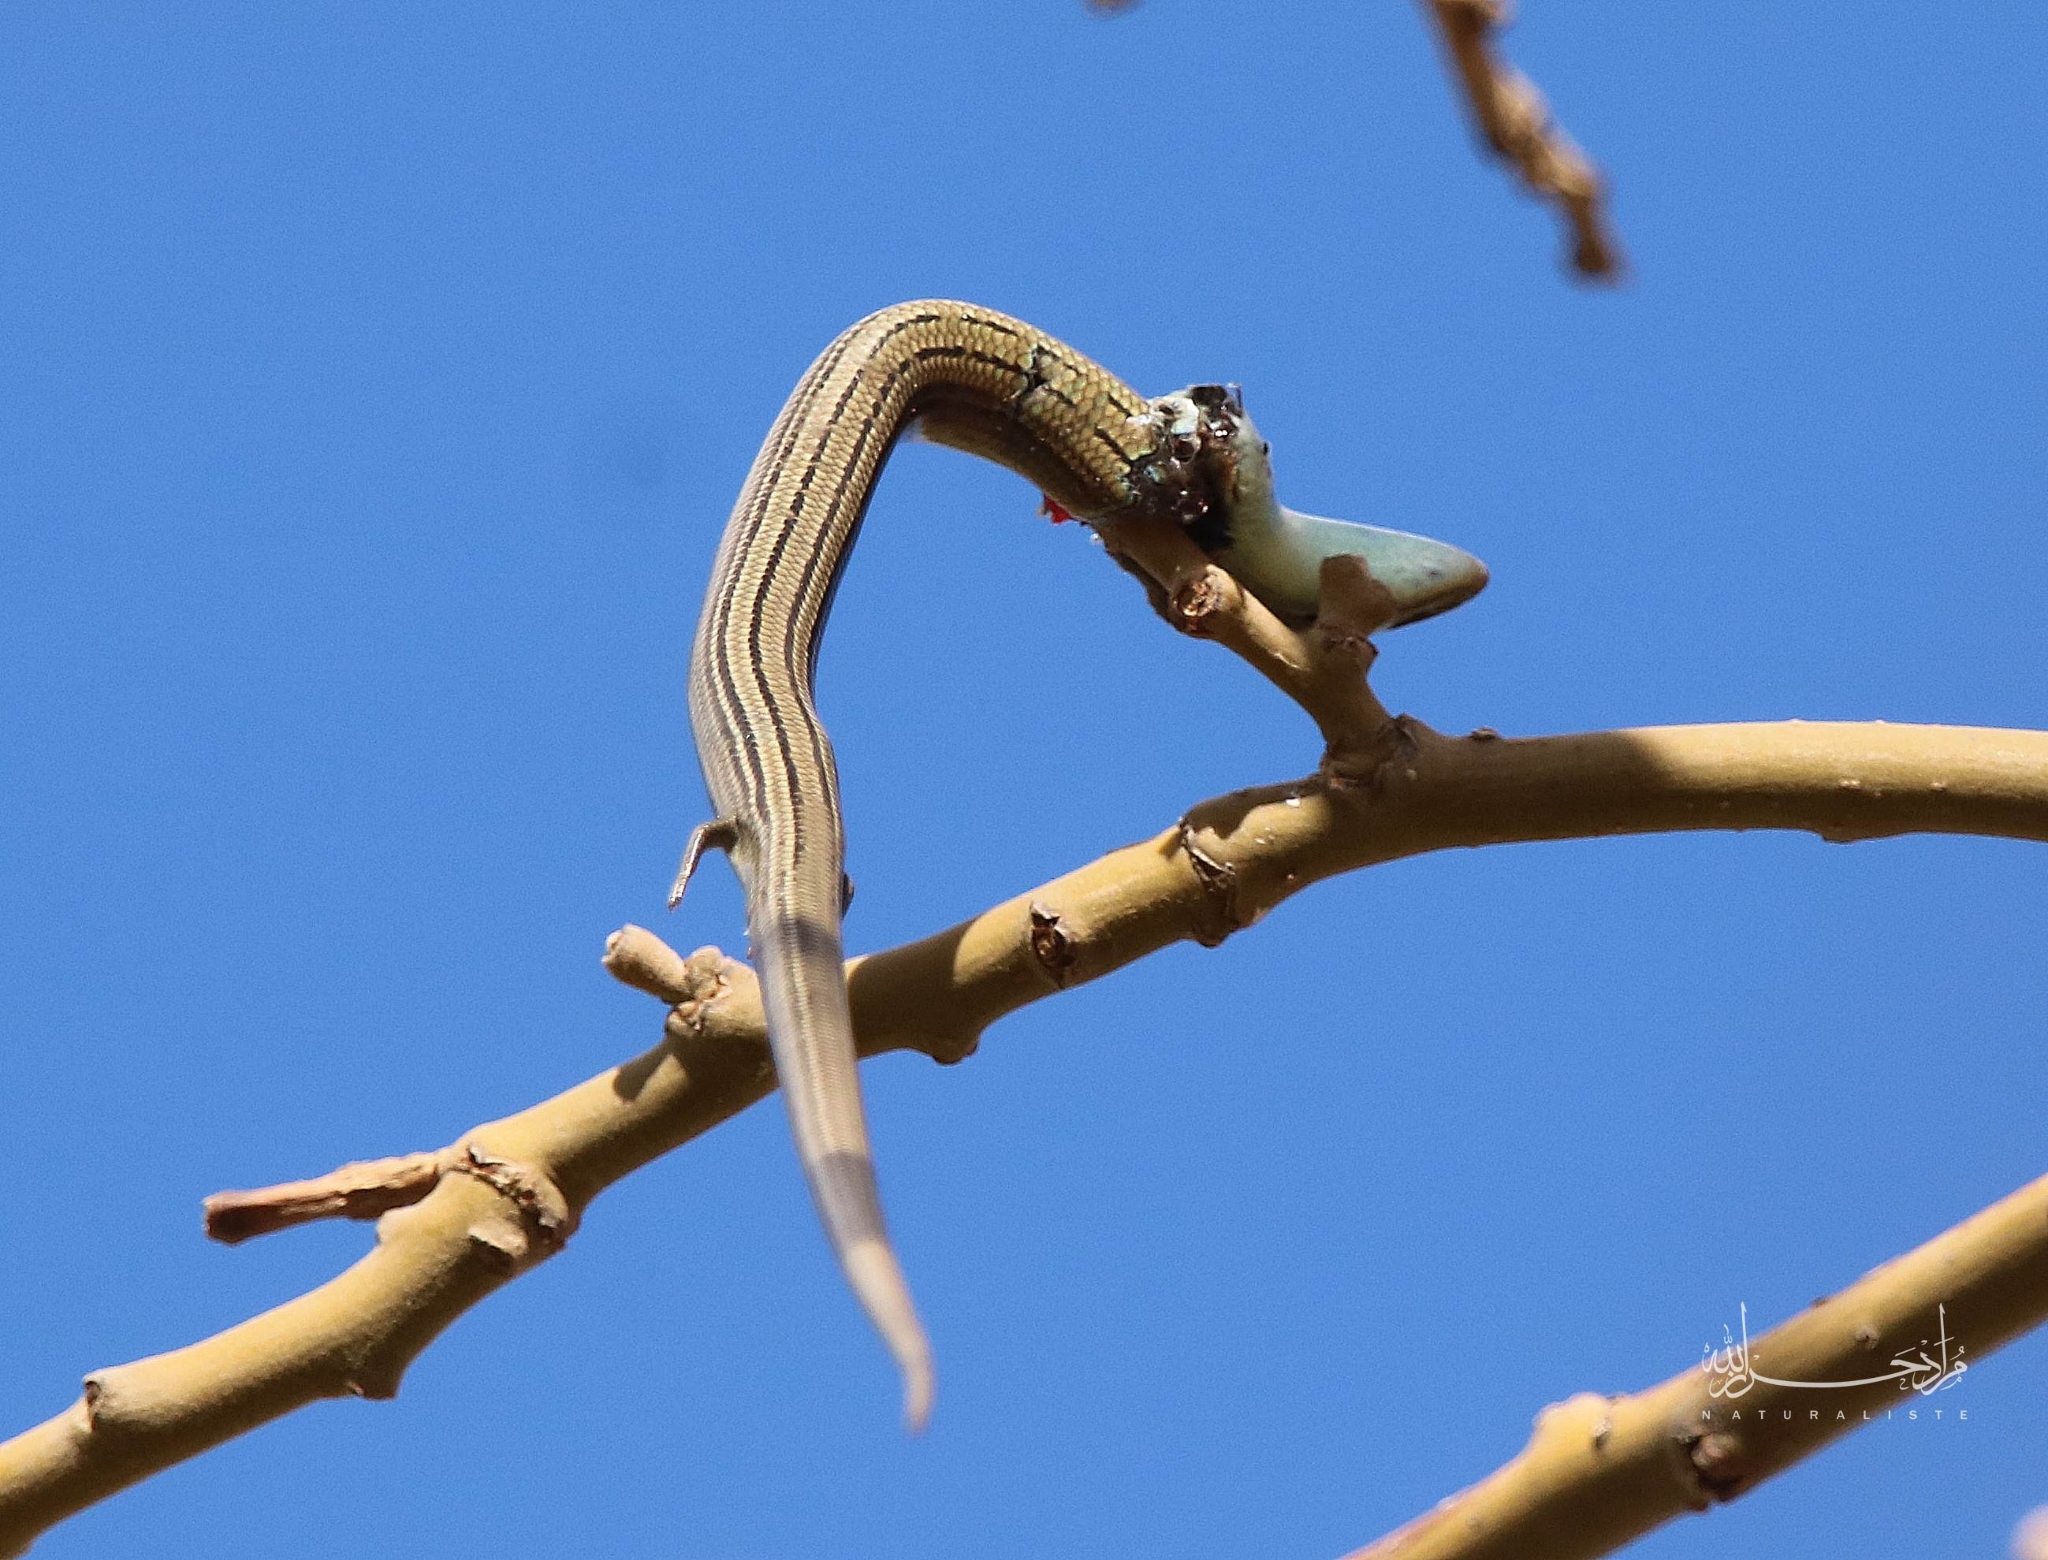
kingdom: Animalia
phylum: Chordata
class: Squamata
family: Scincidae
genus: Chalcides
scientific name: Chalcides mertensi
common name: Algerian three-toed skink
